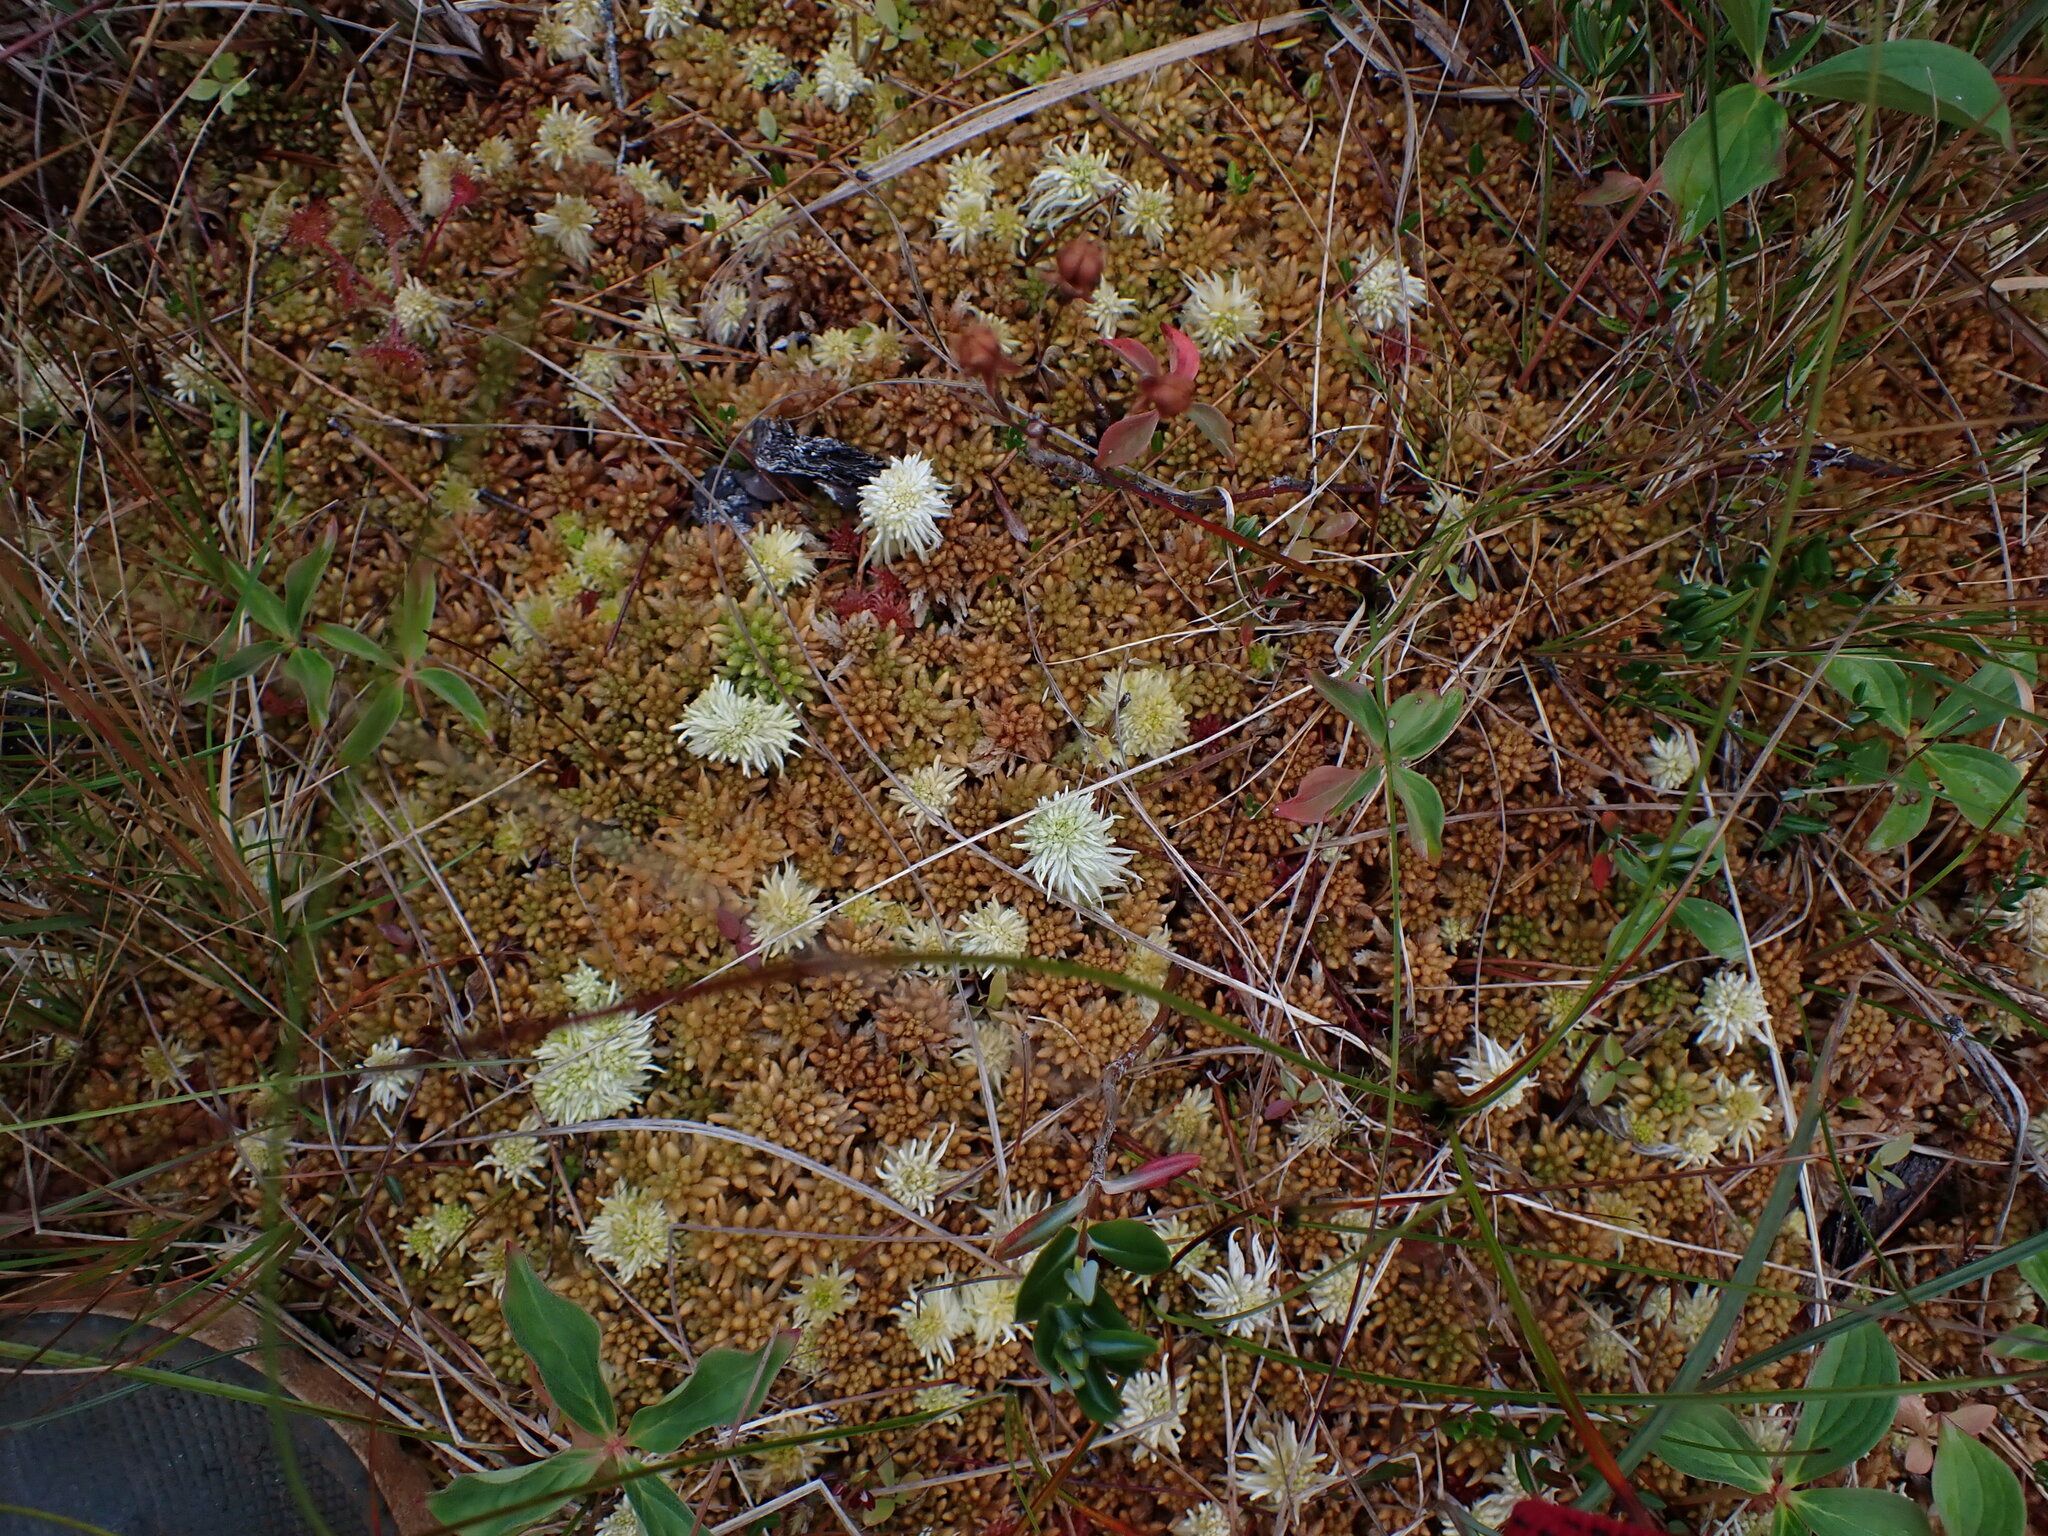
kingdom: Plantae
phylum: Bryophyta
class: Sphagnopsida
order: Sphagnales
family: Sphagnaceae
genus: Sphagnum
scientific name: Sphagnum austinii
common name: Austin's peat moss
